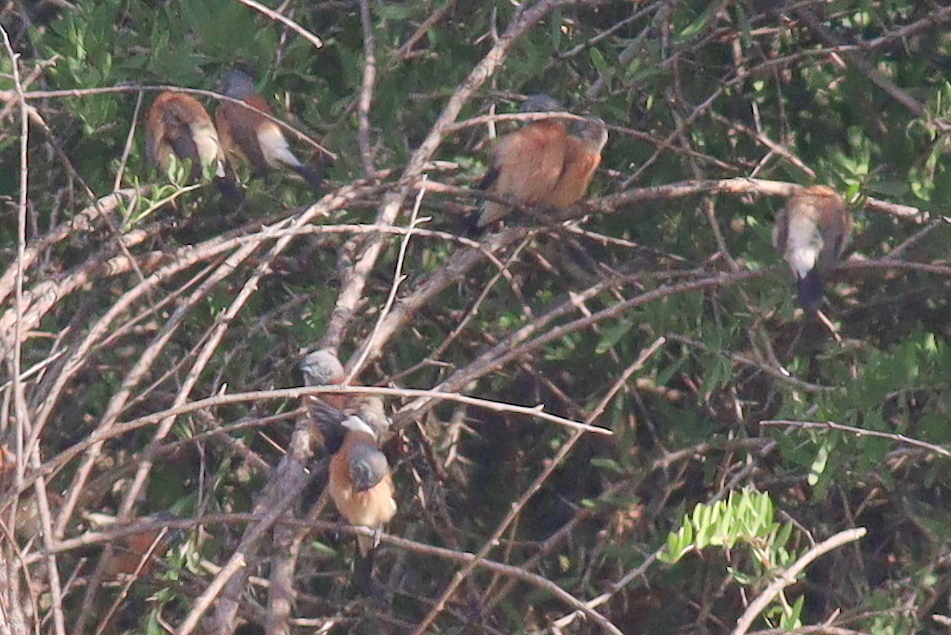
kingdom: Animalia
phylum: Chordata
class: Aves
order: Passeriformes
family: Estrildidae
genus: Odontospiza
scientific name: Odontospiza caniceps
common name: Grey-headed silverbill
